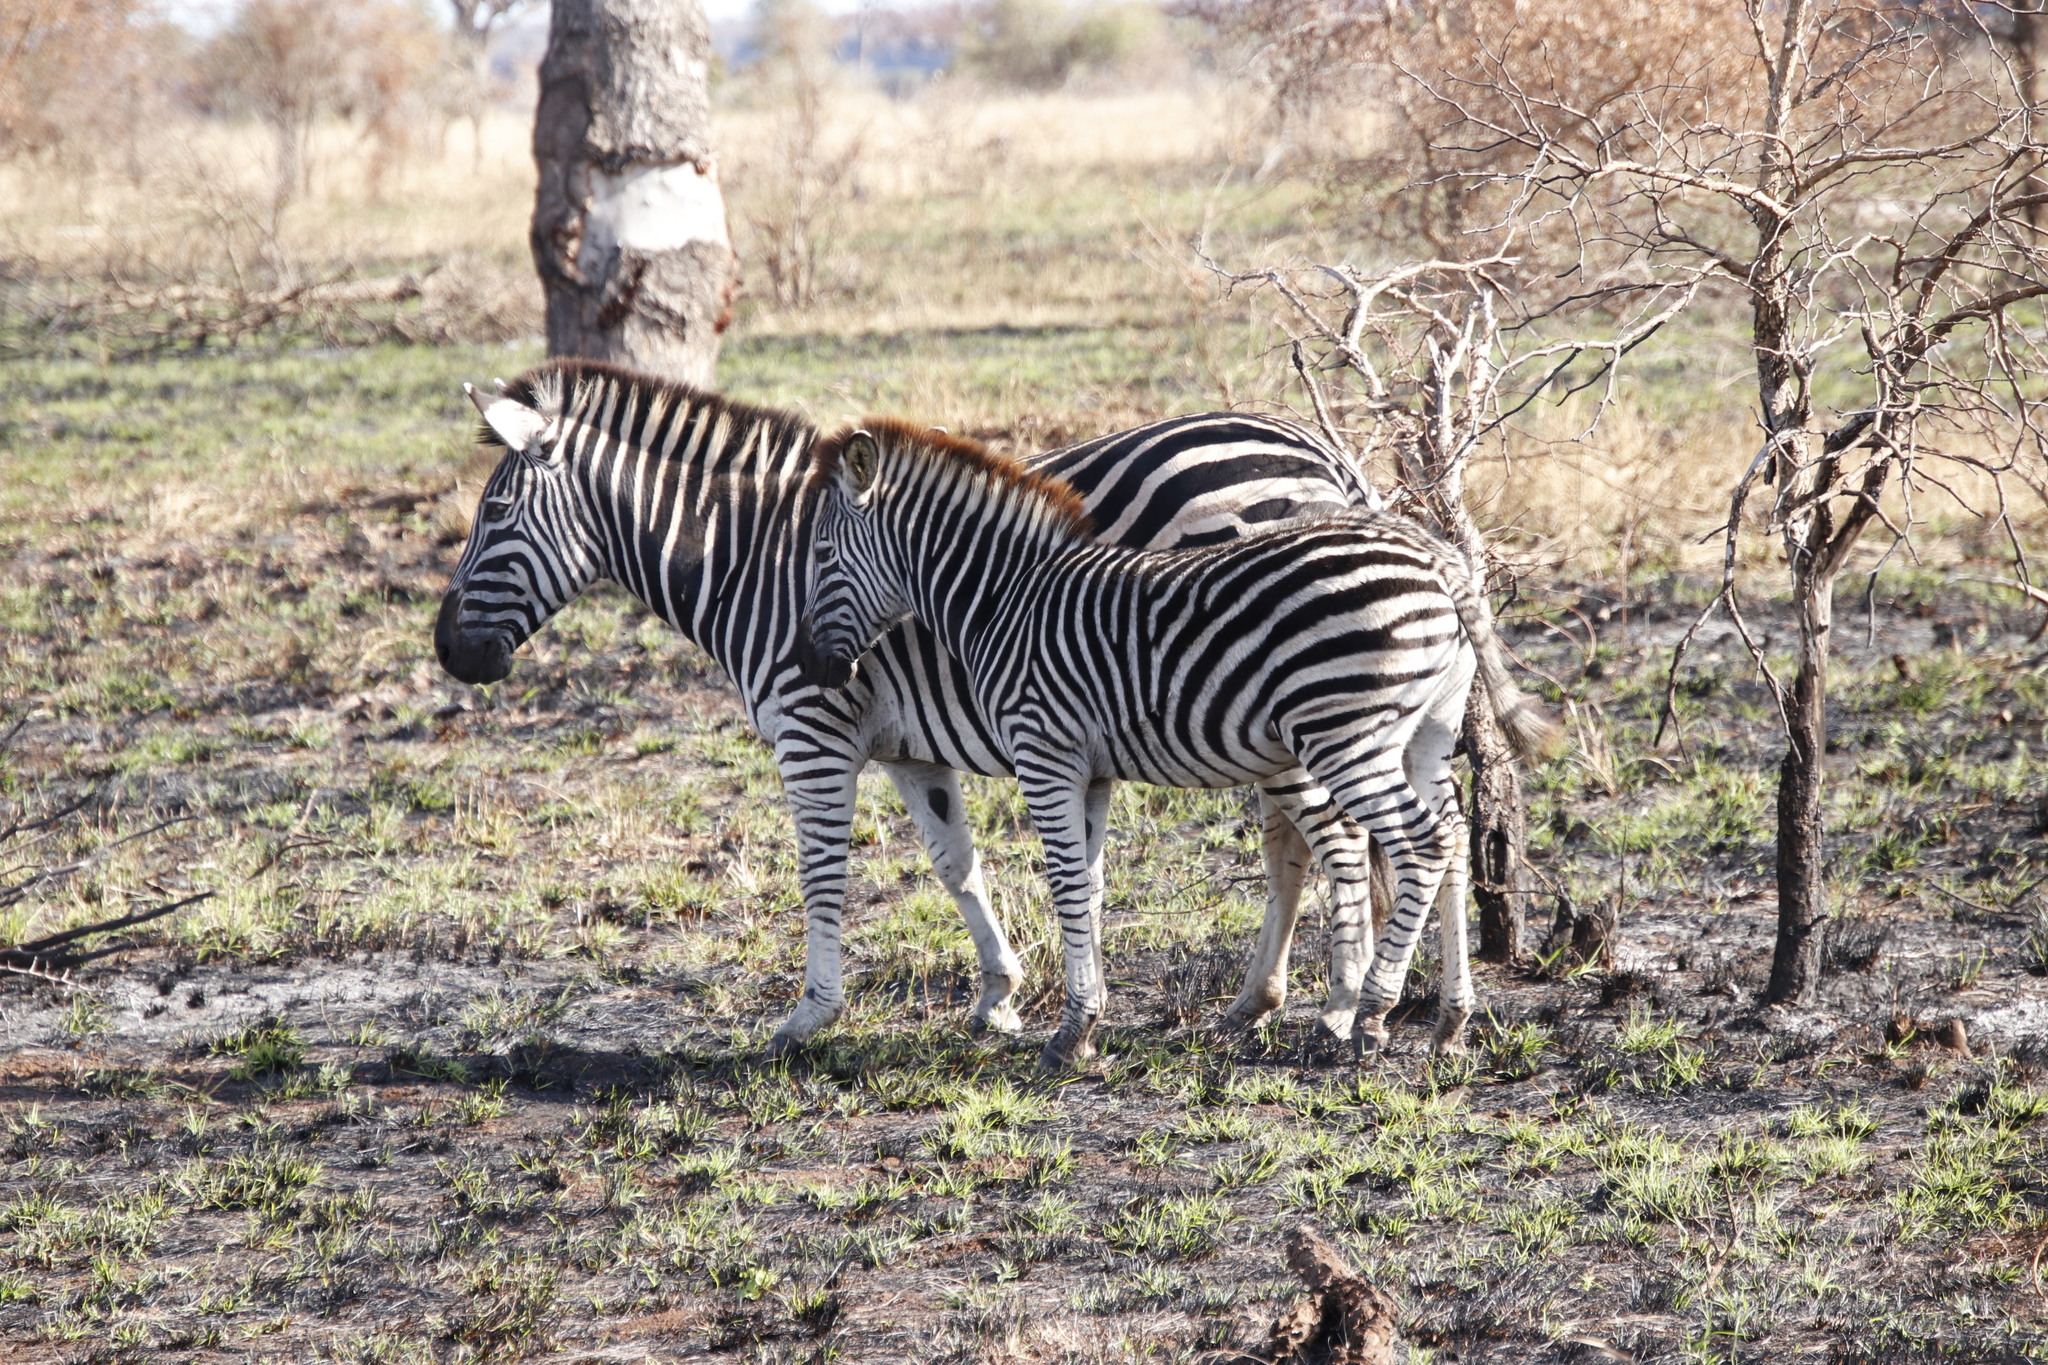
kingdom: Animalia
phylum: Chordata
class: Mammalia
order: Perissodactyla
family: Equidae
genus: Equus
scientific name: Equus quagga
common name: Plains zebra
